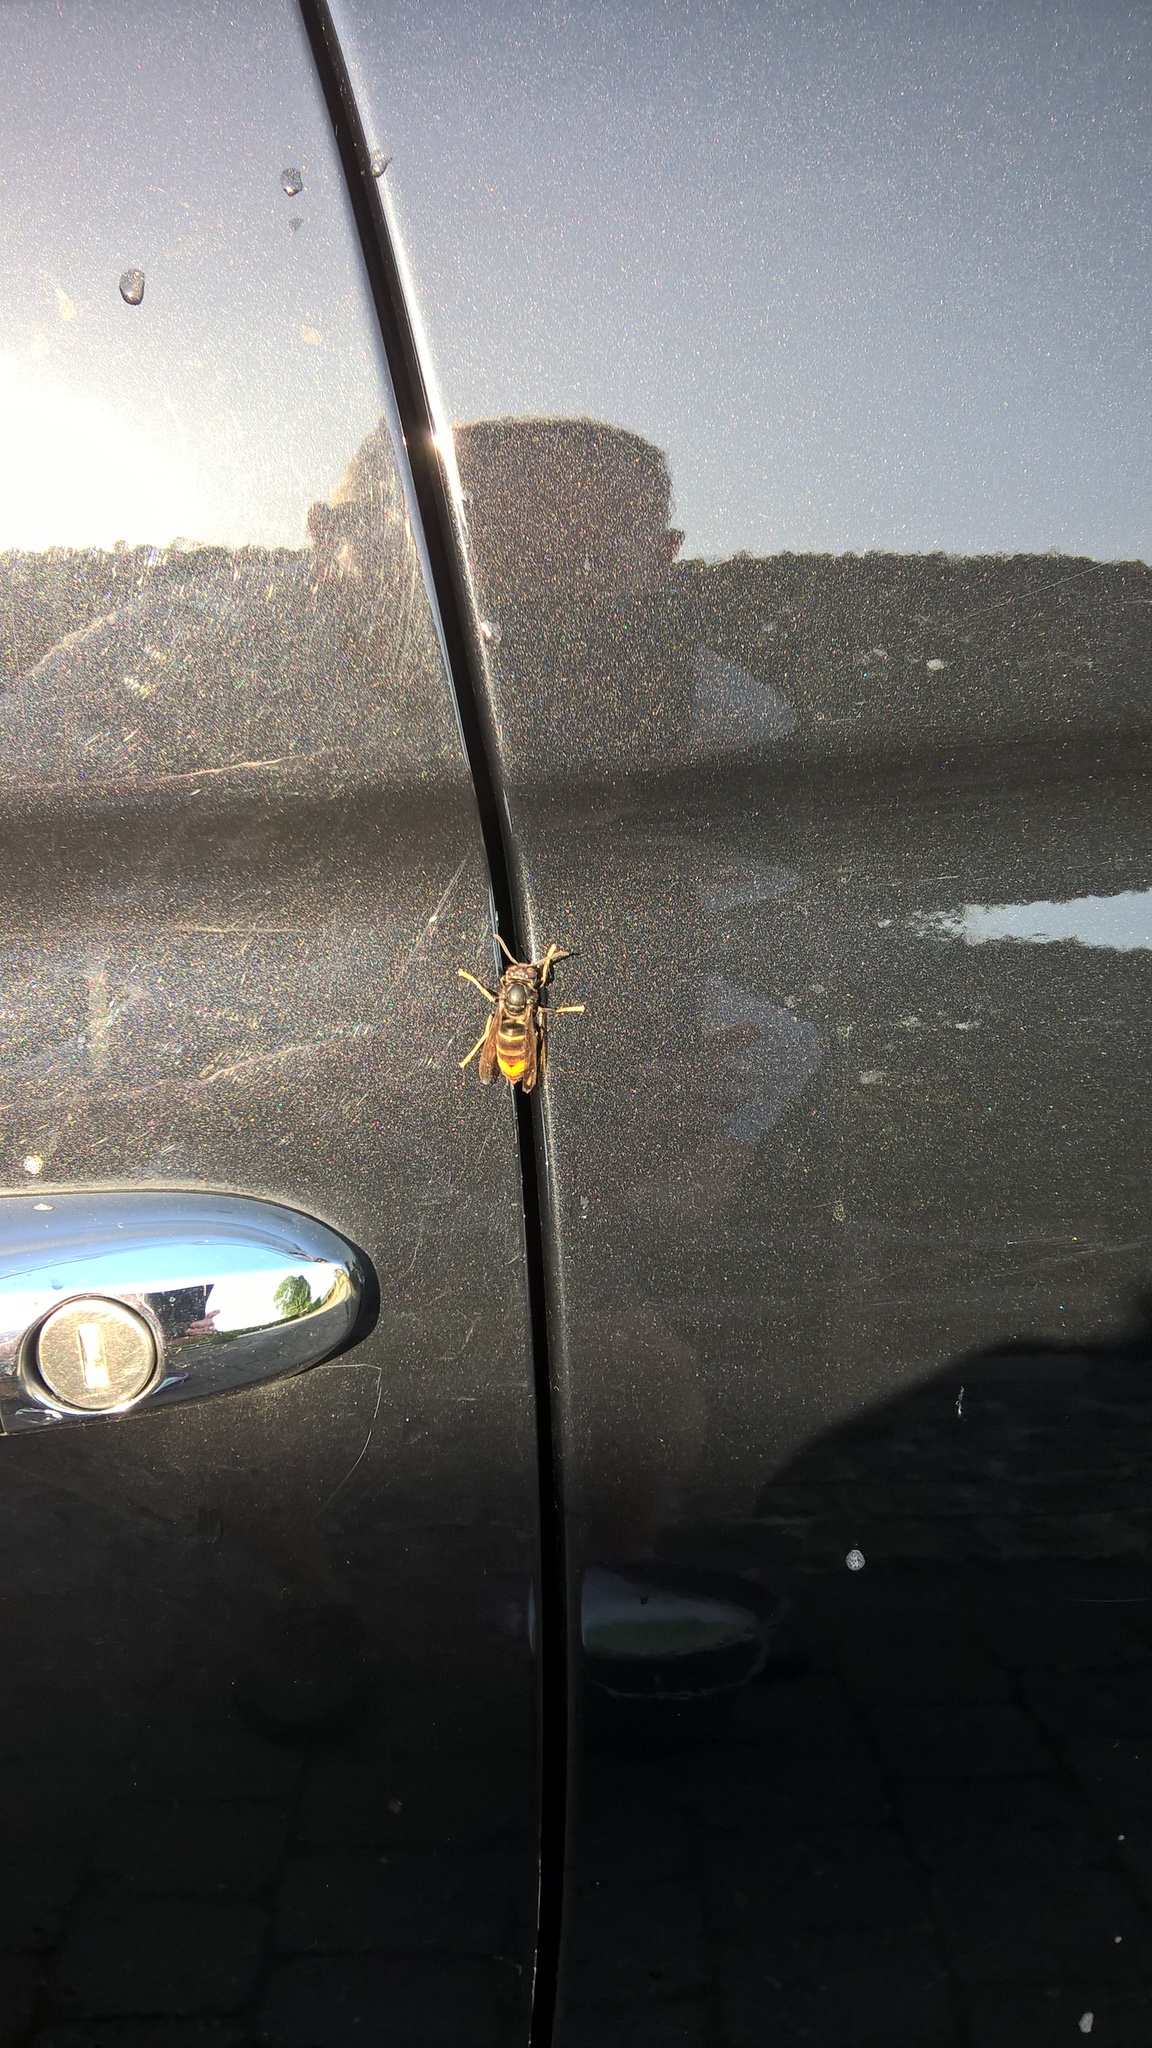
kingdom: Animalia
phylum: Arthropoda
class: Insecta
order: Hymenoptera
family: Vespidae
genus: Vespa
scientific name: Vespa velutina
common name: Asian hornet
